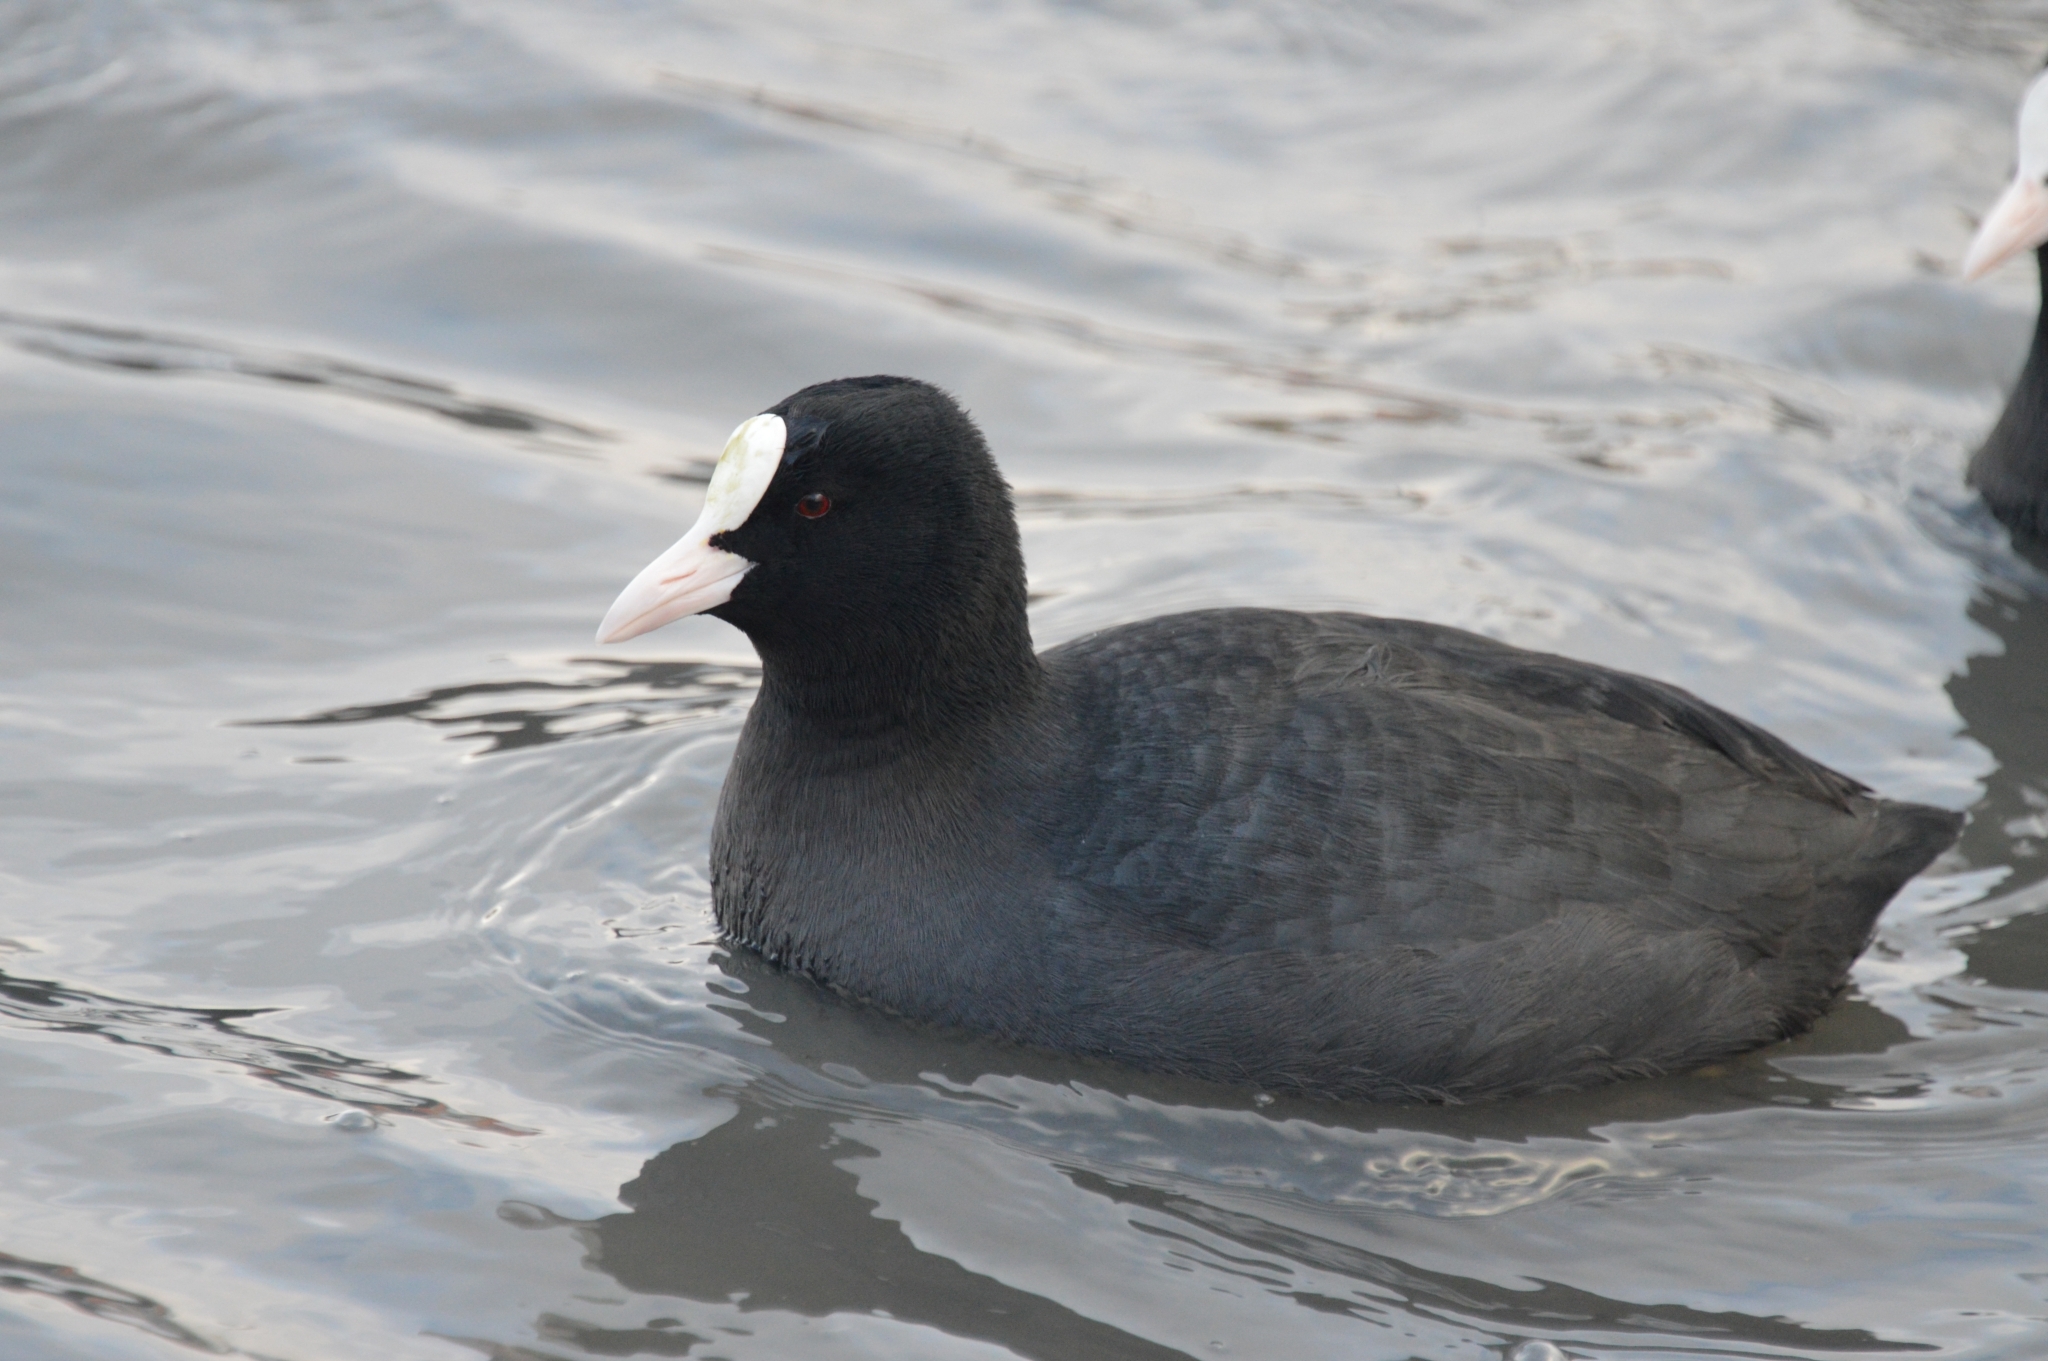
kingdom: Animalia
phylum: Chordata
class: Aves
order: Gruiformes
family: Rallidae
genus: Fulica
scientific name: Fulica atra
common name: Eurasian coot
